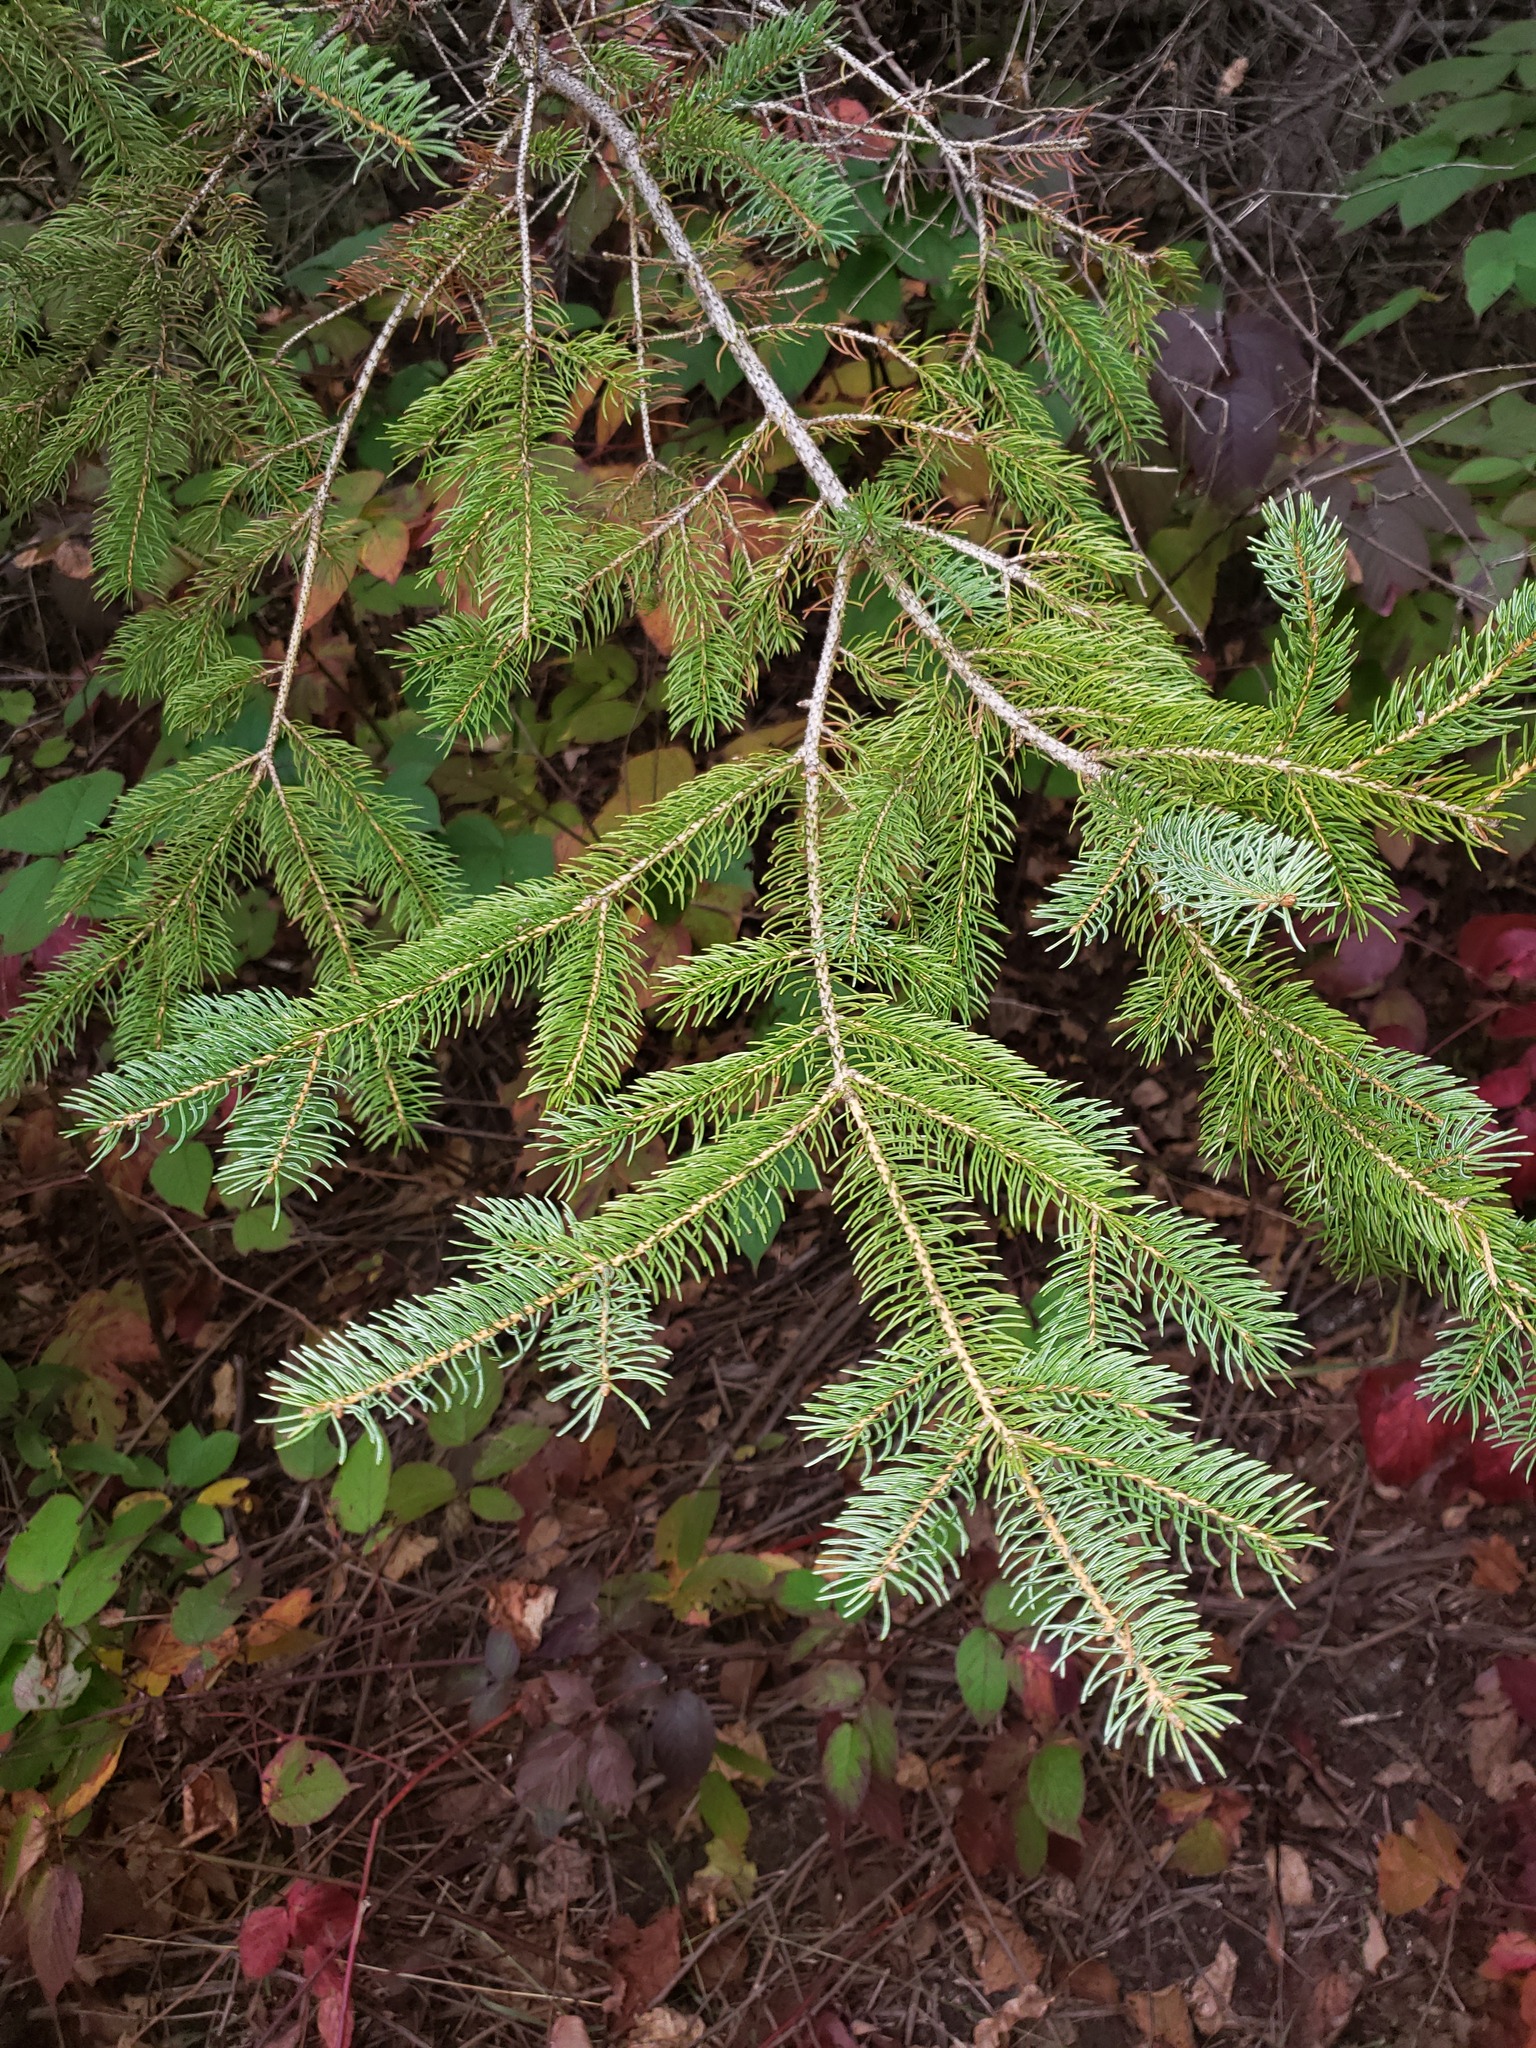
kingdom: Plantae
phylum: Tracheophyta
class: Pinopsida
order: Pinales
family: Pinaceae
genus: Picea
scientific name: Picea glauca
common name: White spruce
